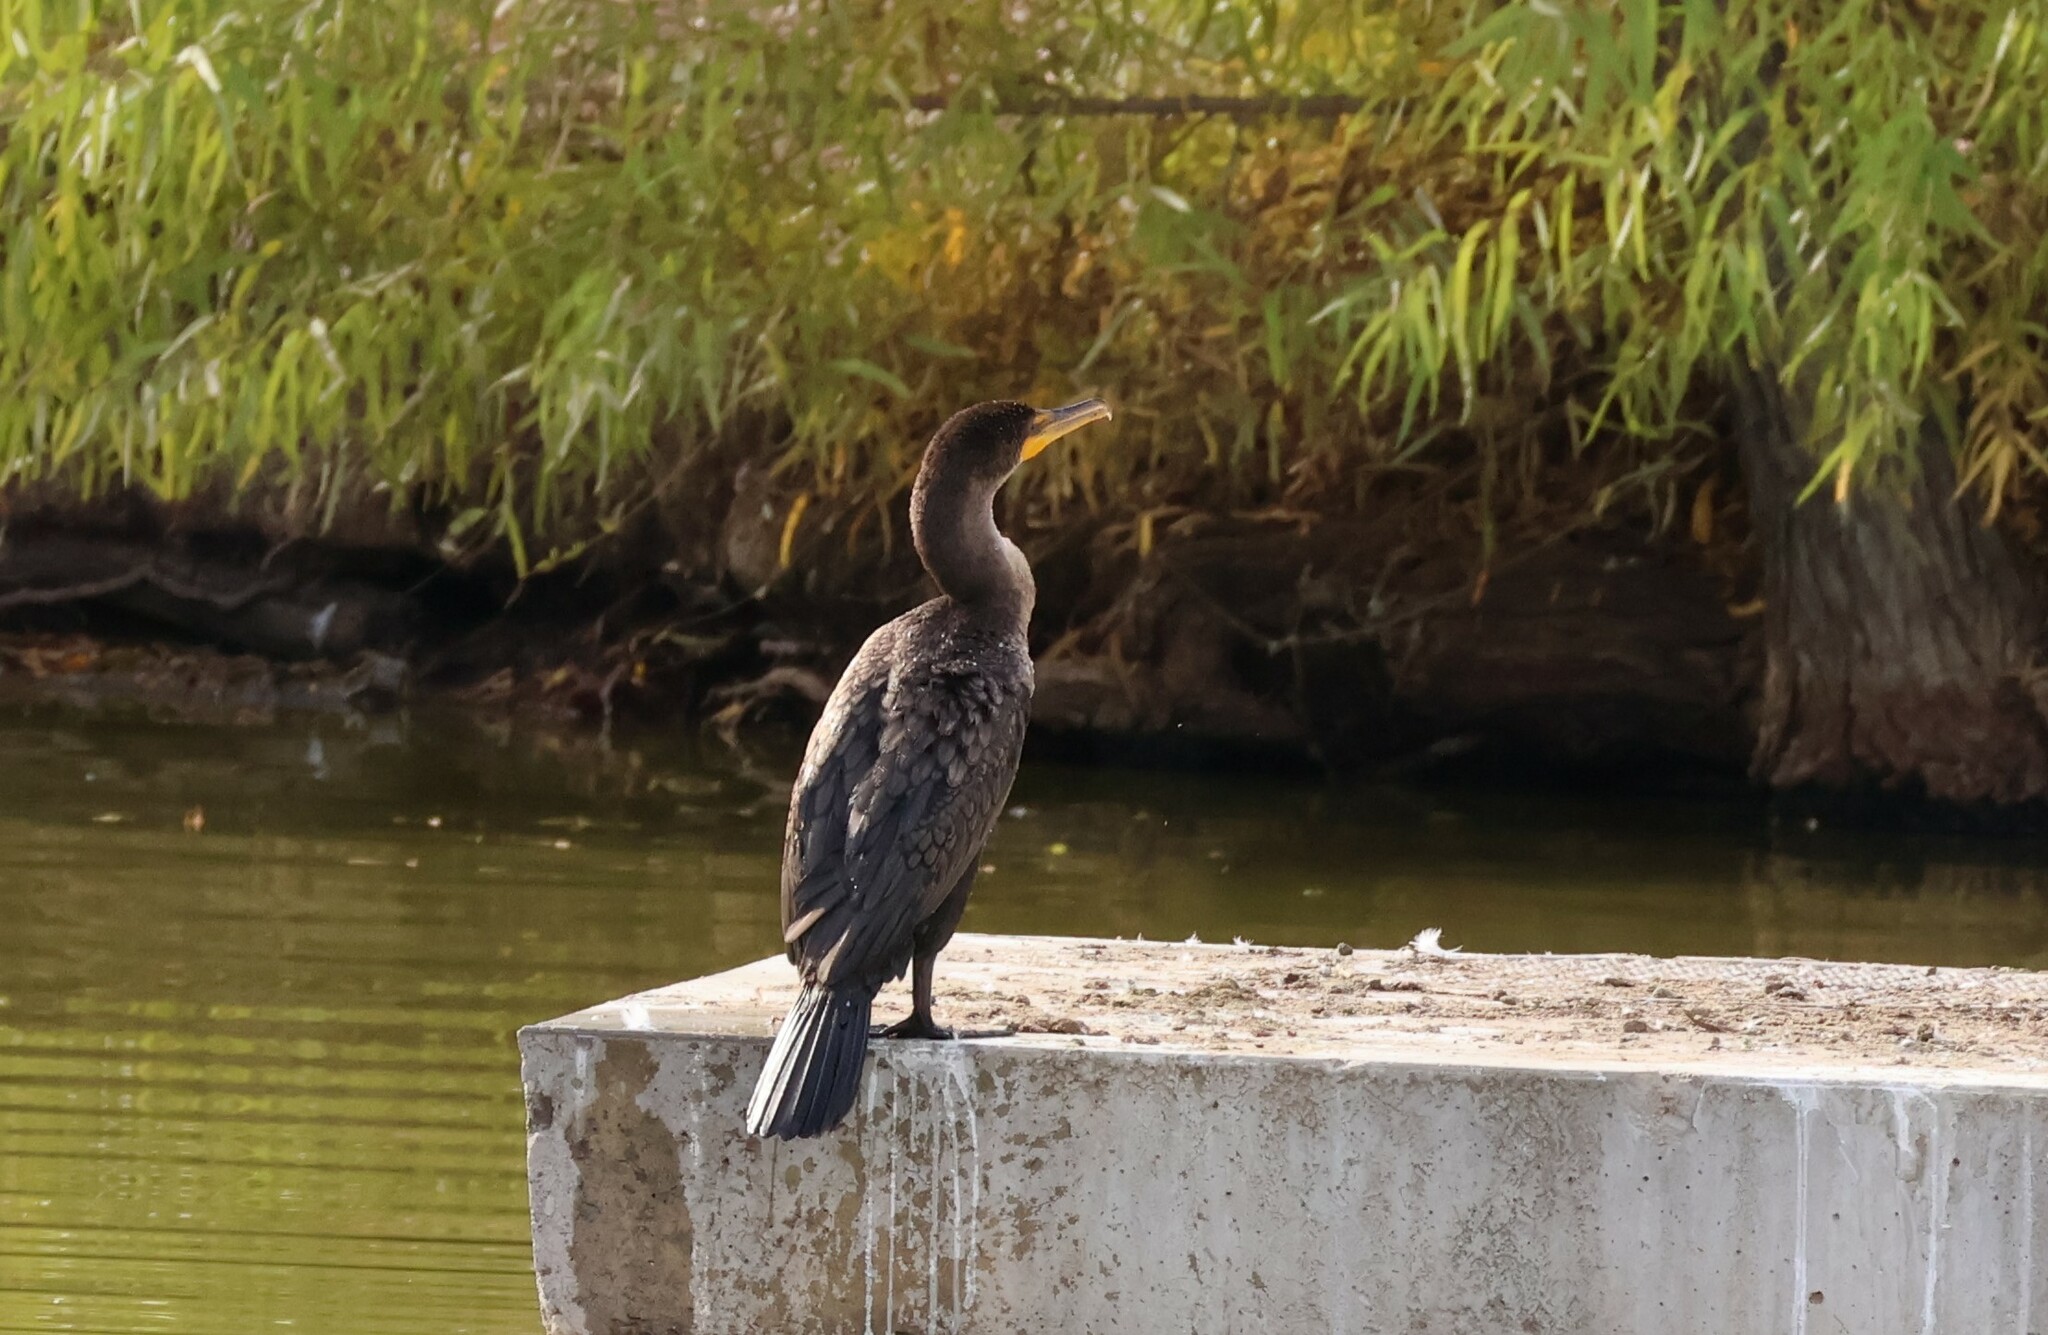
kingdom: Animalia
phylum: Chordata
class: Aves
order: Suliformes
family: Phalacrocoracidae
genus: Phalacrocorax
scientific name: Phalacrocorax auritus
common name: Double-crested cormorant
